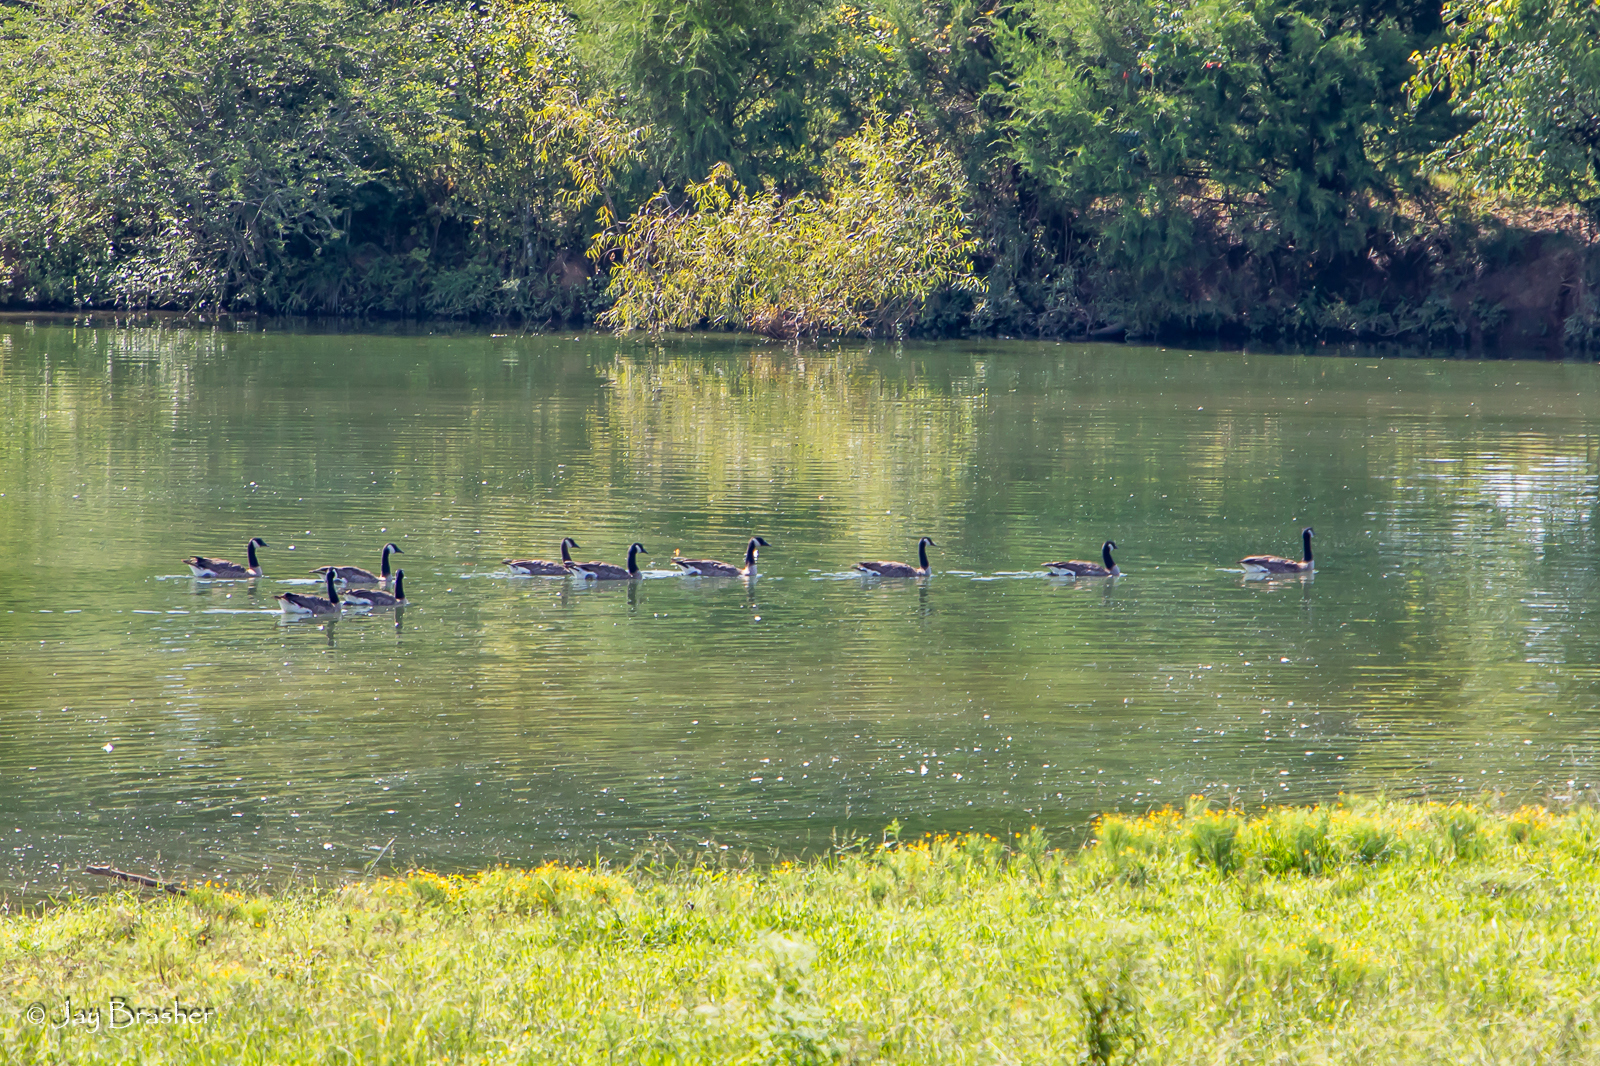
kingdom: Animalia
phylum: Chordata
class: Aves
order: Anseriformes
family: Anatidae
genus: Branta
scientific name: Branta canadensis
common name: Canada goose
